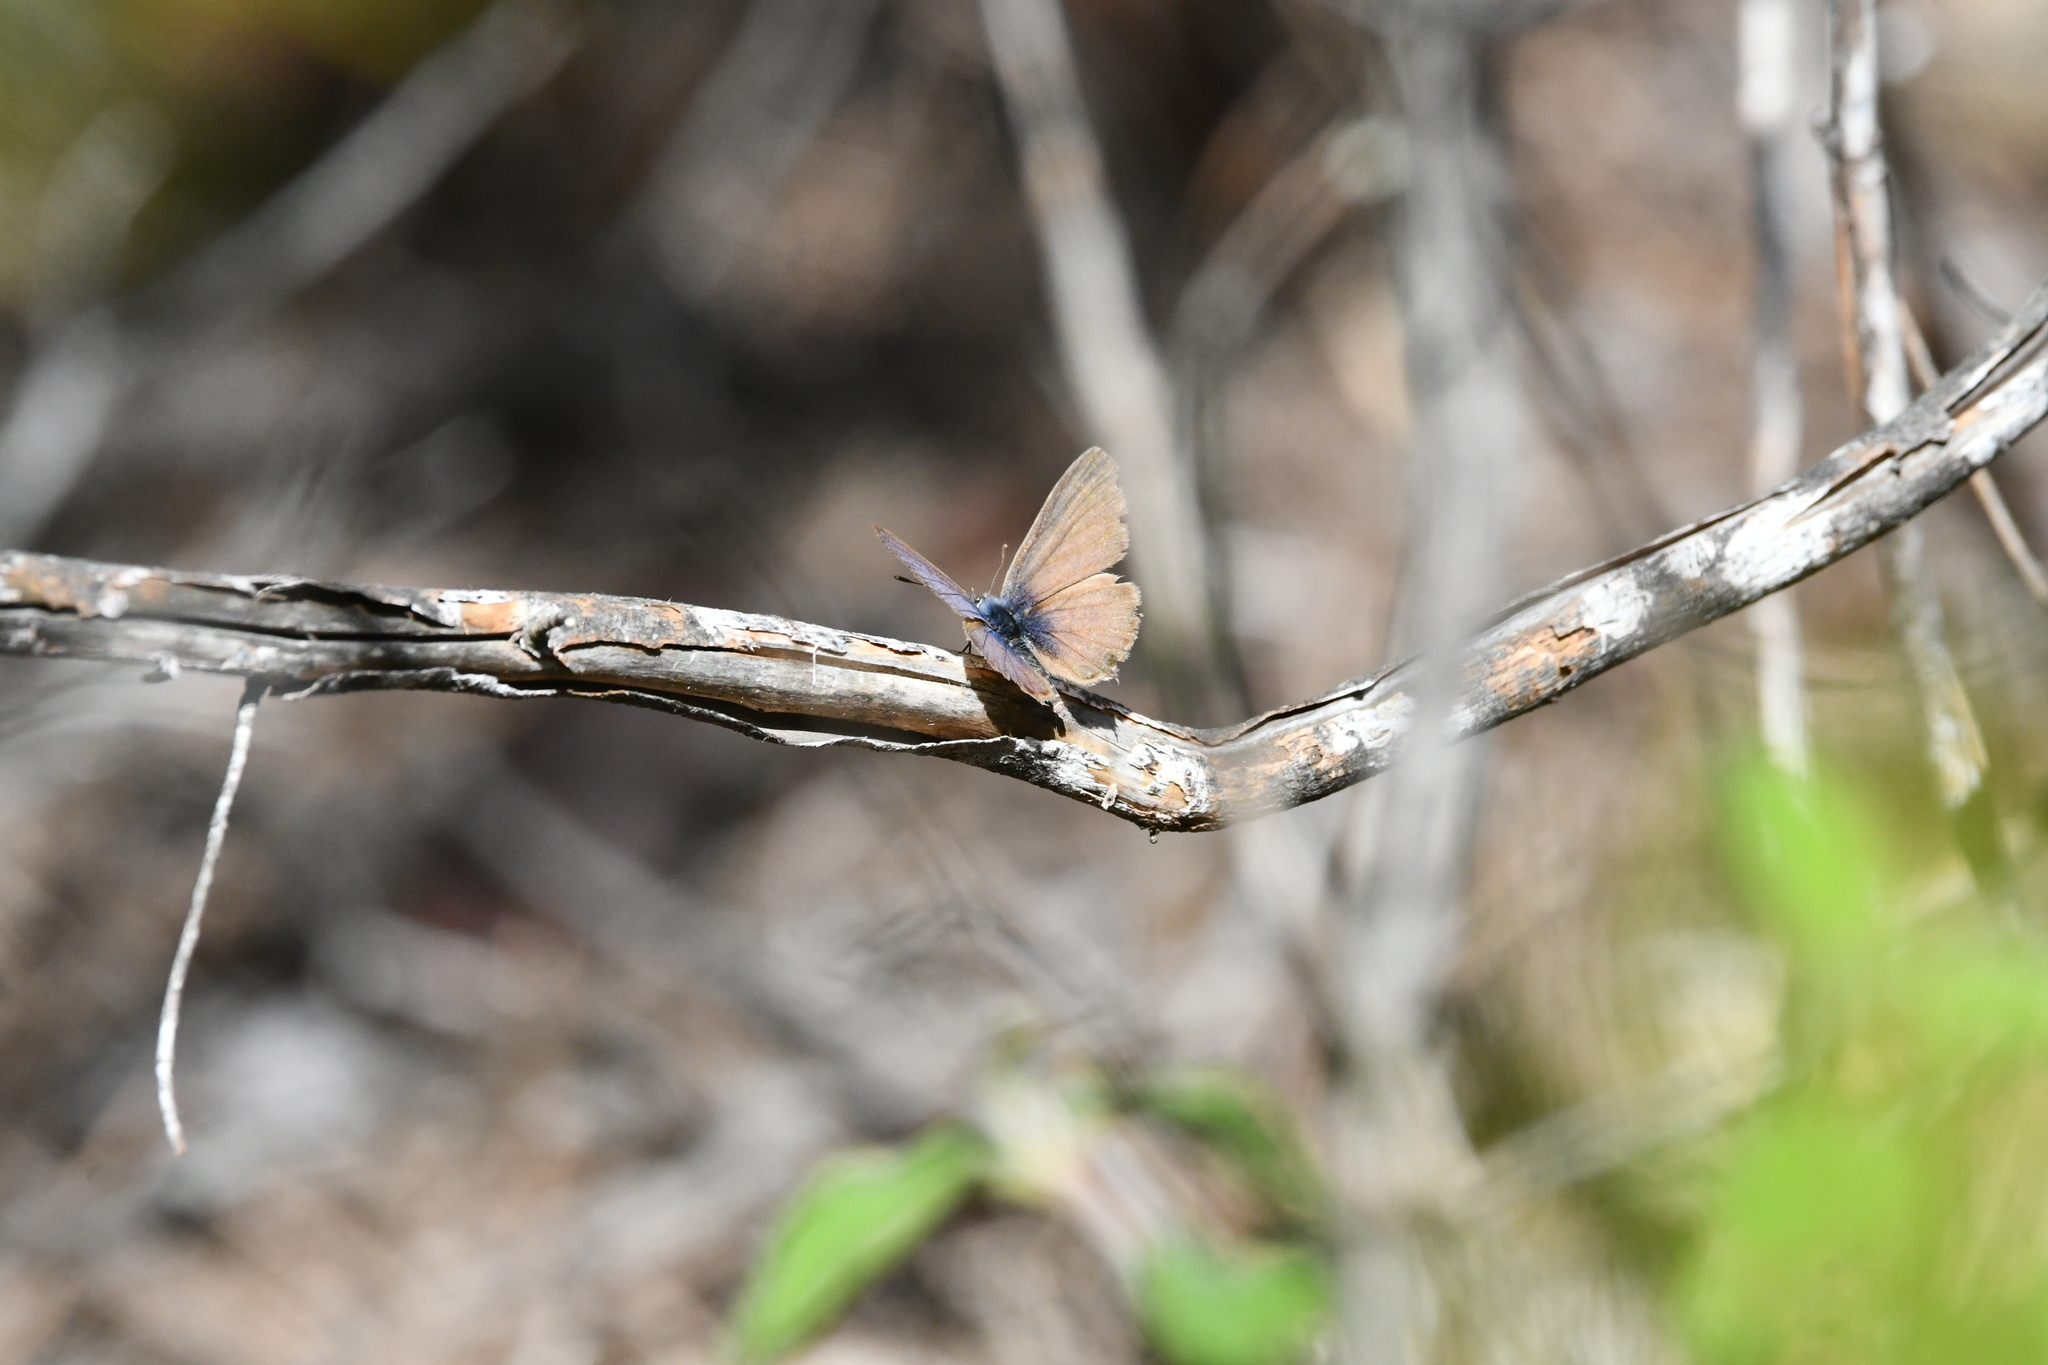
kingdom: Animalia
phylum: Arthropoda
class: Insecta
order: Lepidoptera
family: Lycaenidae
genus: Leptotes
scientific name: Leptotes pirithous
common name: Lang's short-tailed blue
